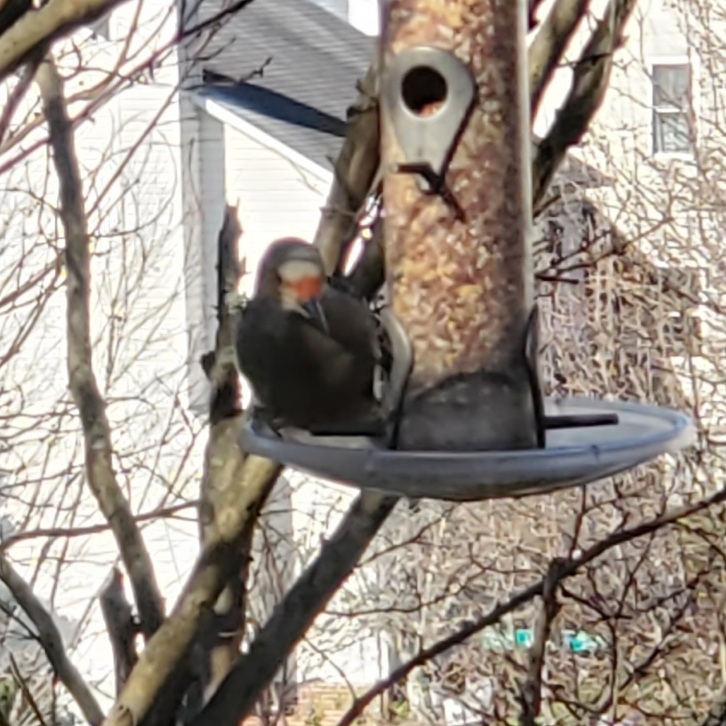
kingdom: Animalia
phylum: Chordata
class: Aves
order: Piciformes
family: Picidae
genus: Melanerpes
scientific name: Melanerpes carolinus
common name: Red-bellied woodpecker
